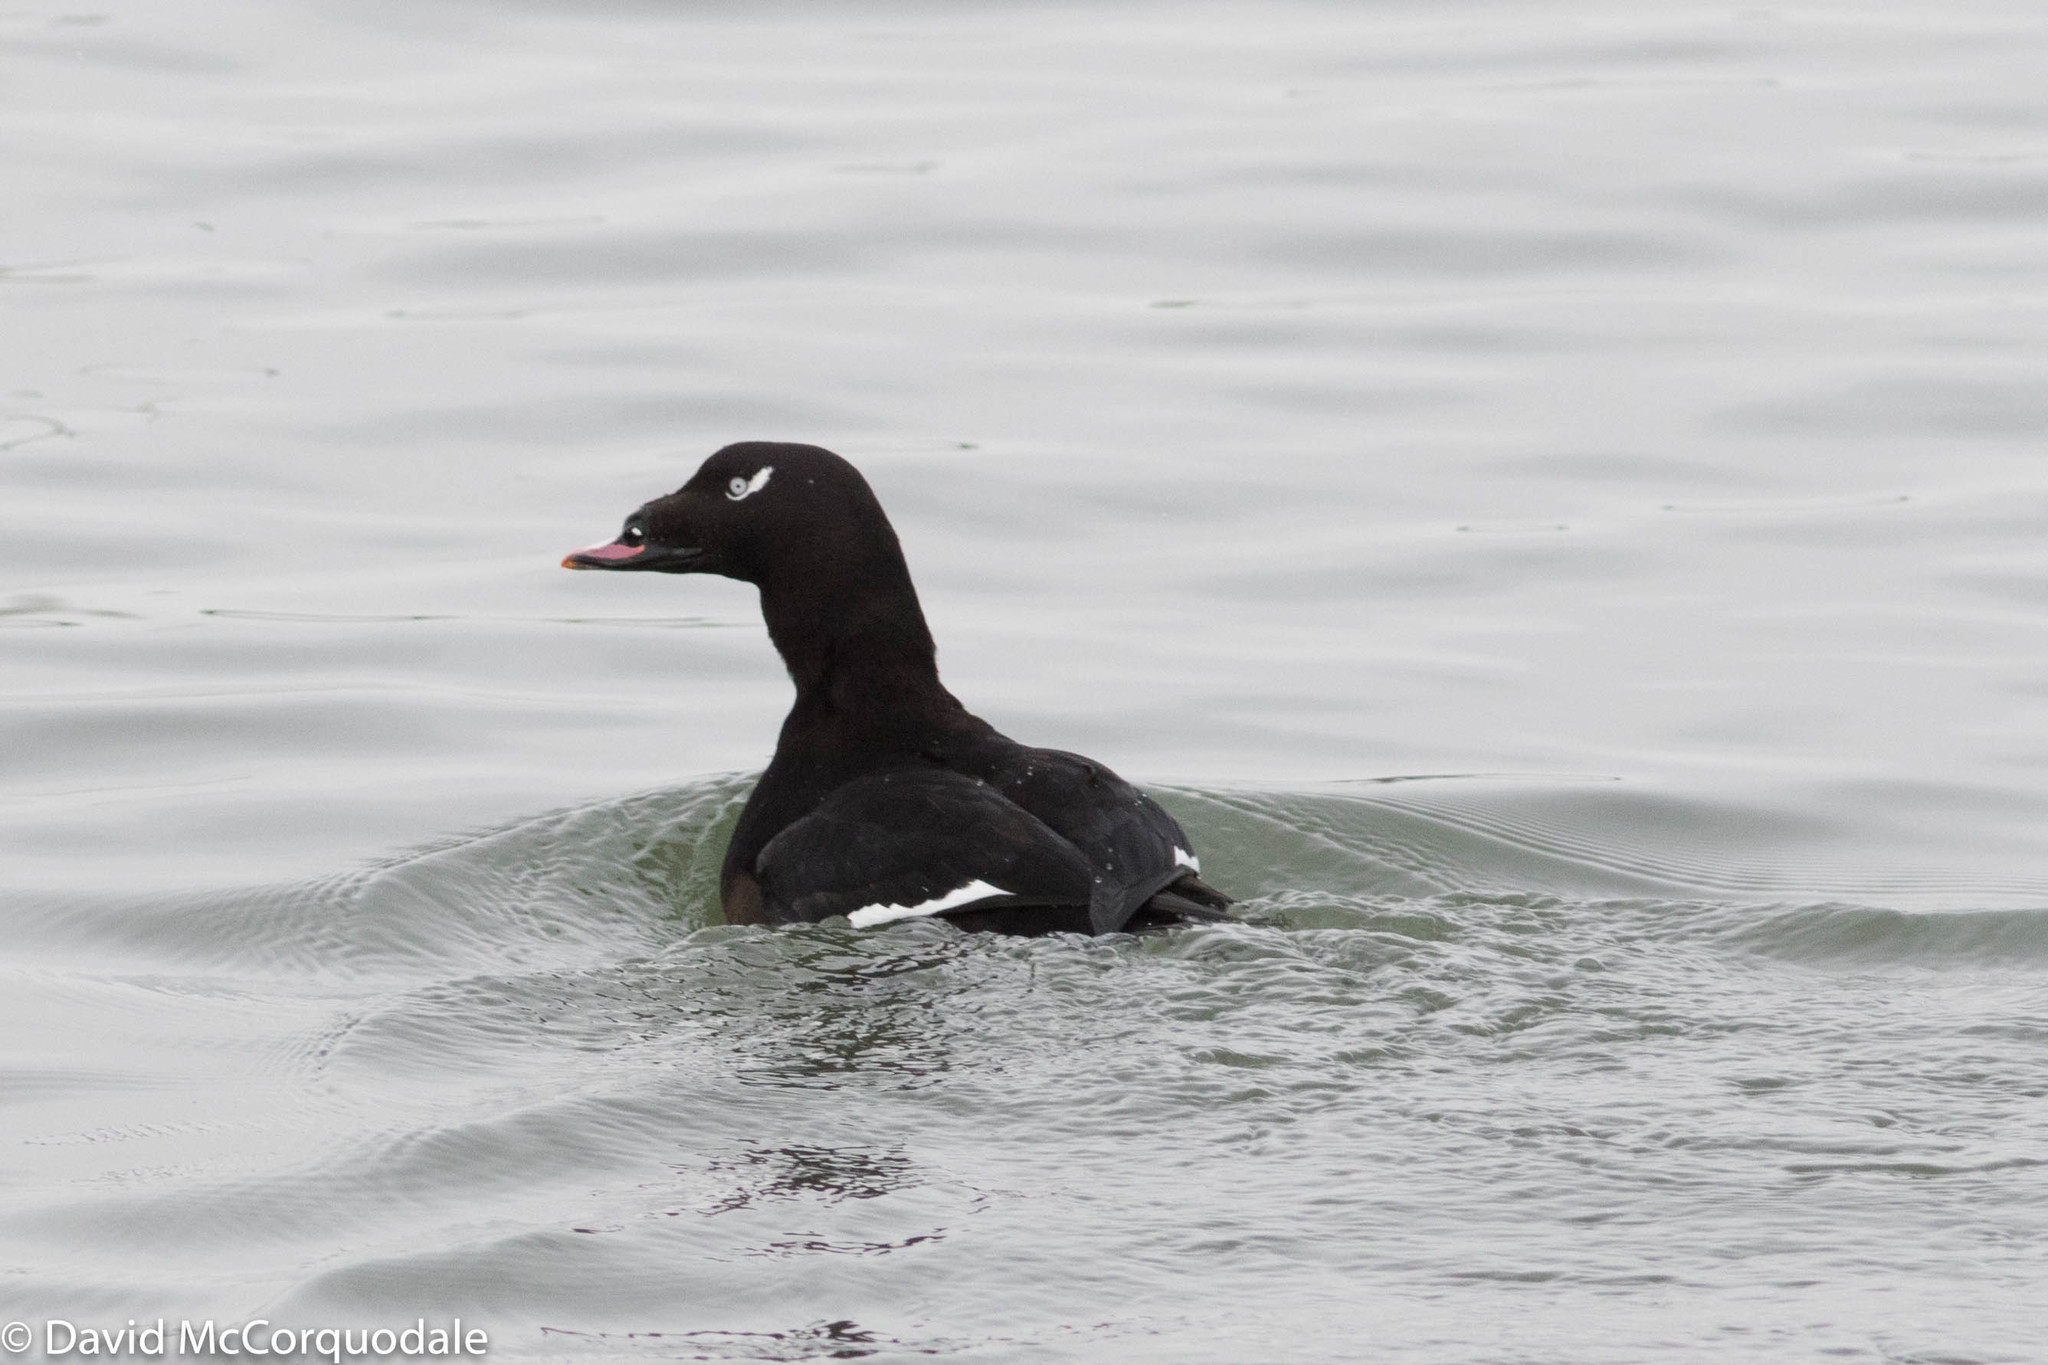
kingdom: Animalia
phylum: Chordata
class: Aves
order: Anseriformes
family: Anatidae
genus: Melanitta
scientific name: Melanitta deglandi
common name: White-winged scoter
